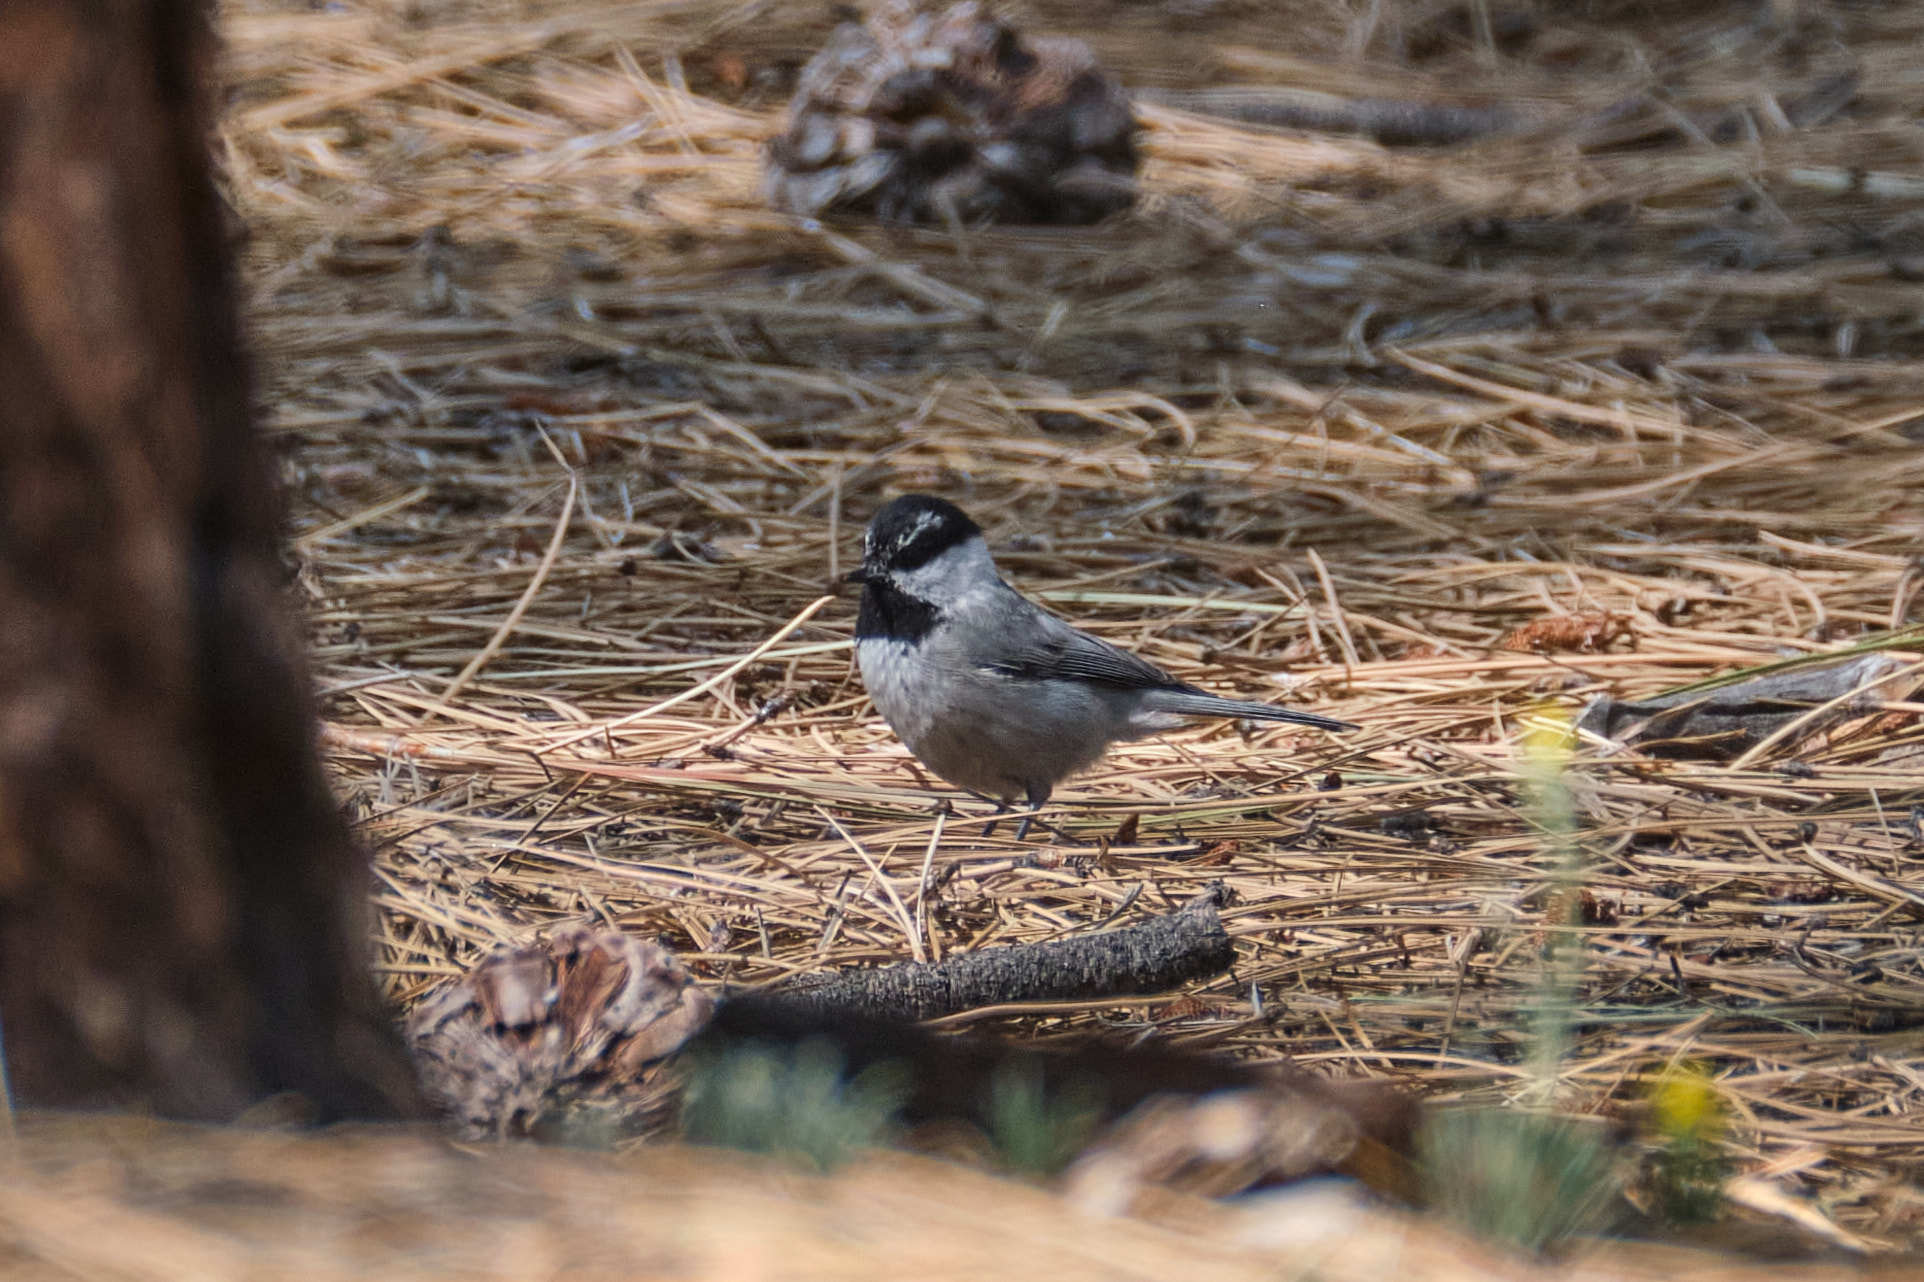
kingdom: Animalia
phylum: Chordata
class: Aves
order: Passeriformes
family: Paridae
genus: Poecile
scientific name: Poecile gambeli
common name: Mountain chickadee
